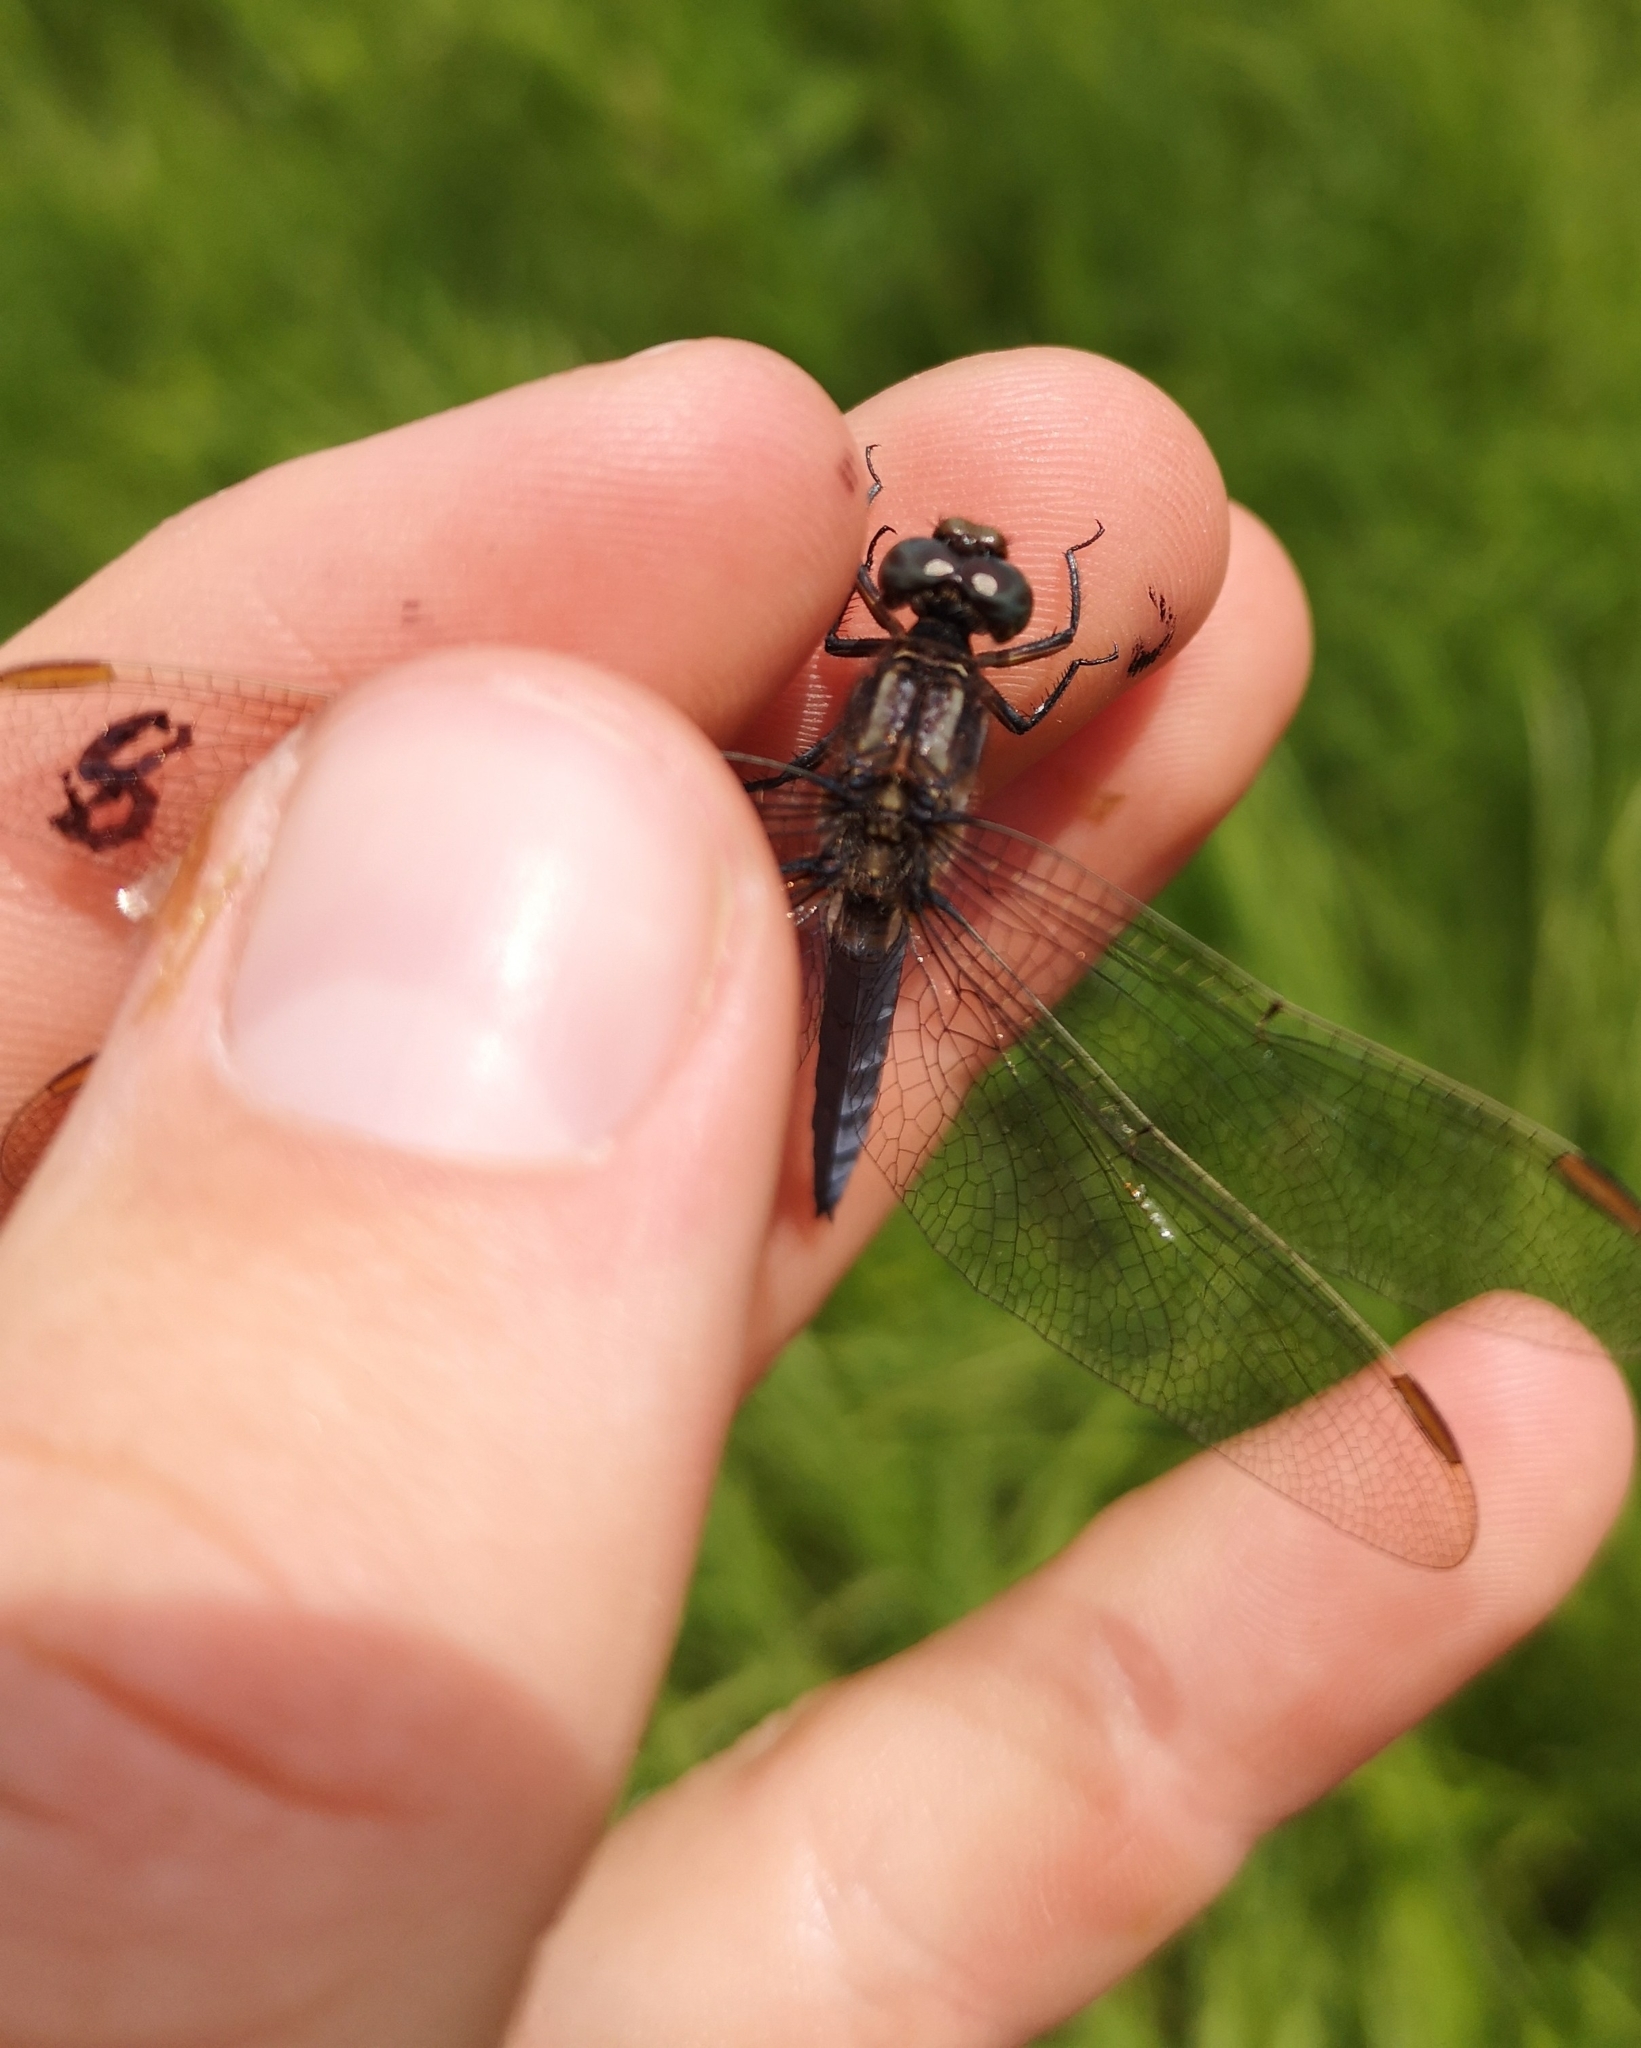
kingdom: Animalia
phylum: Arthropoda
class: Insecta
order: Odonata
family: Libellulidae
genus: Orthetrum
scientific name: Orthetrum coerulescens
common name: Keeled skimmer
